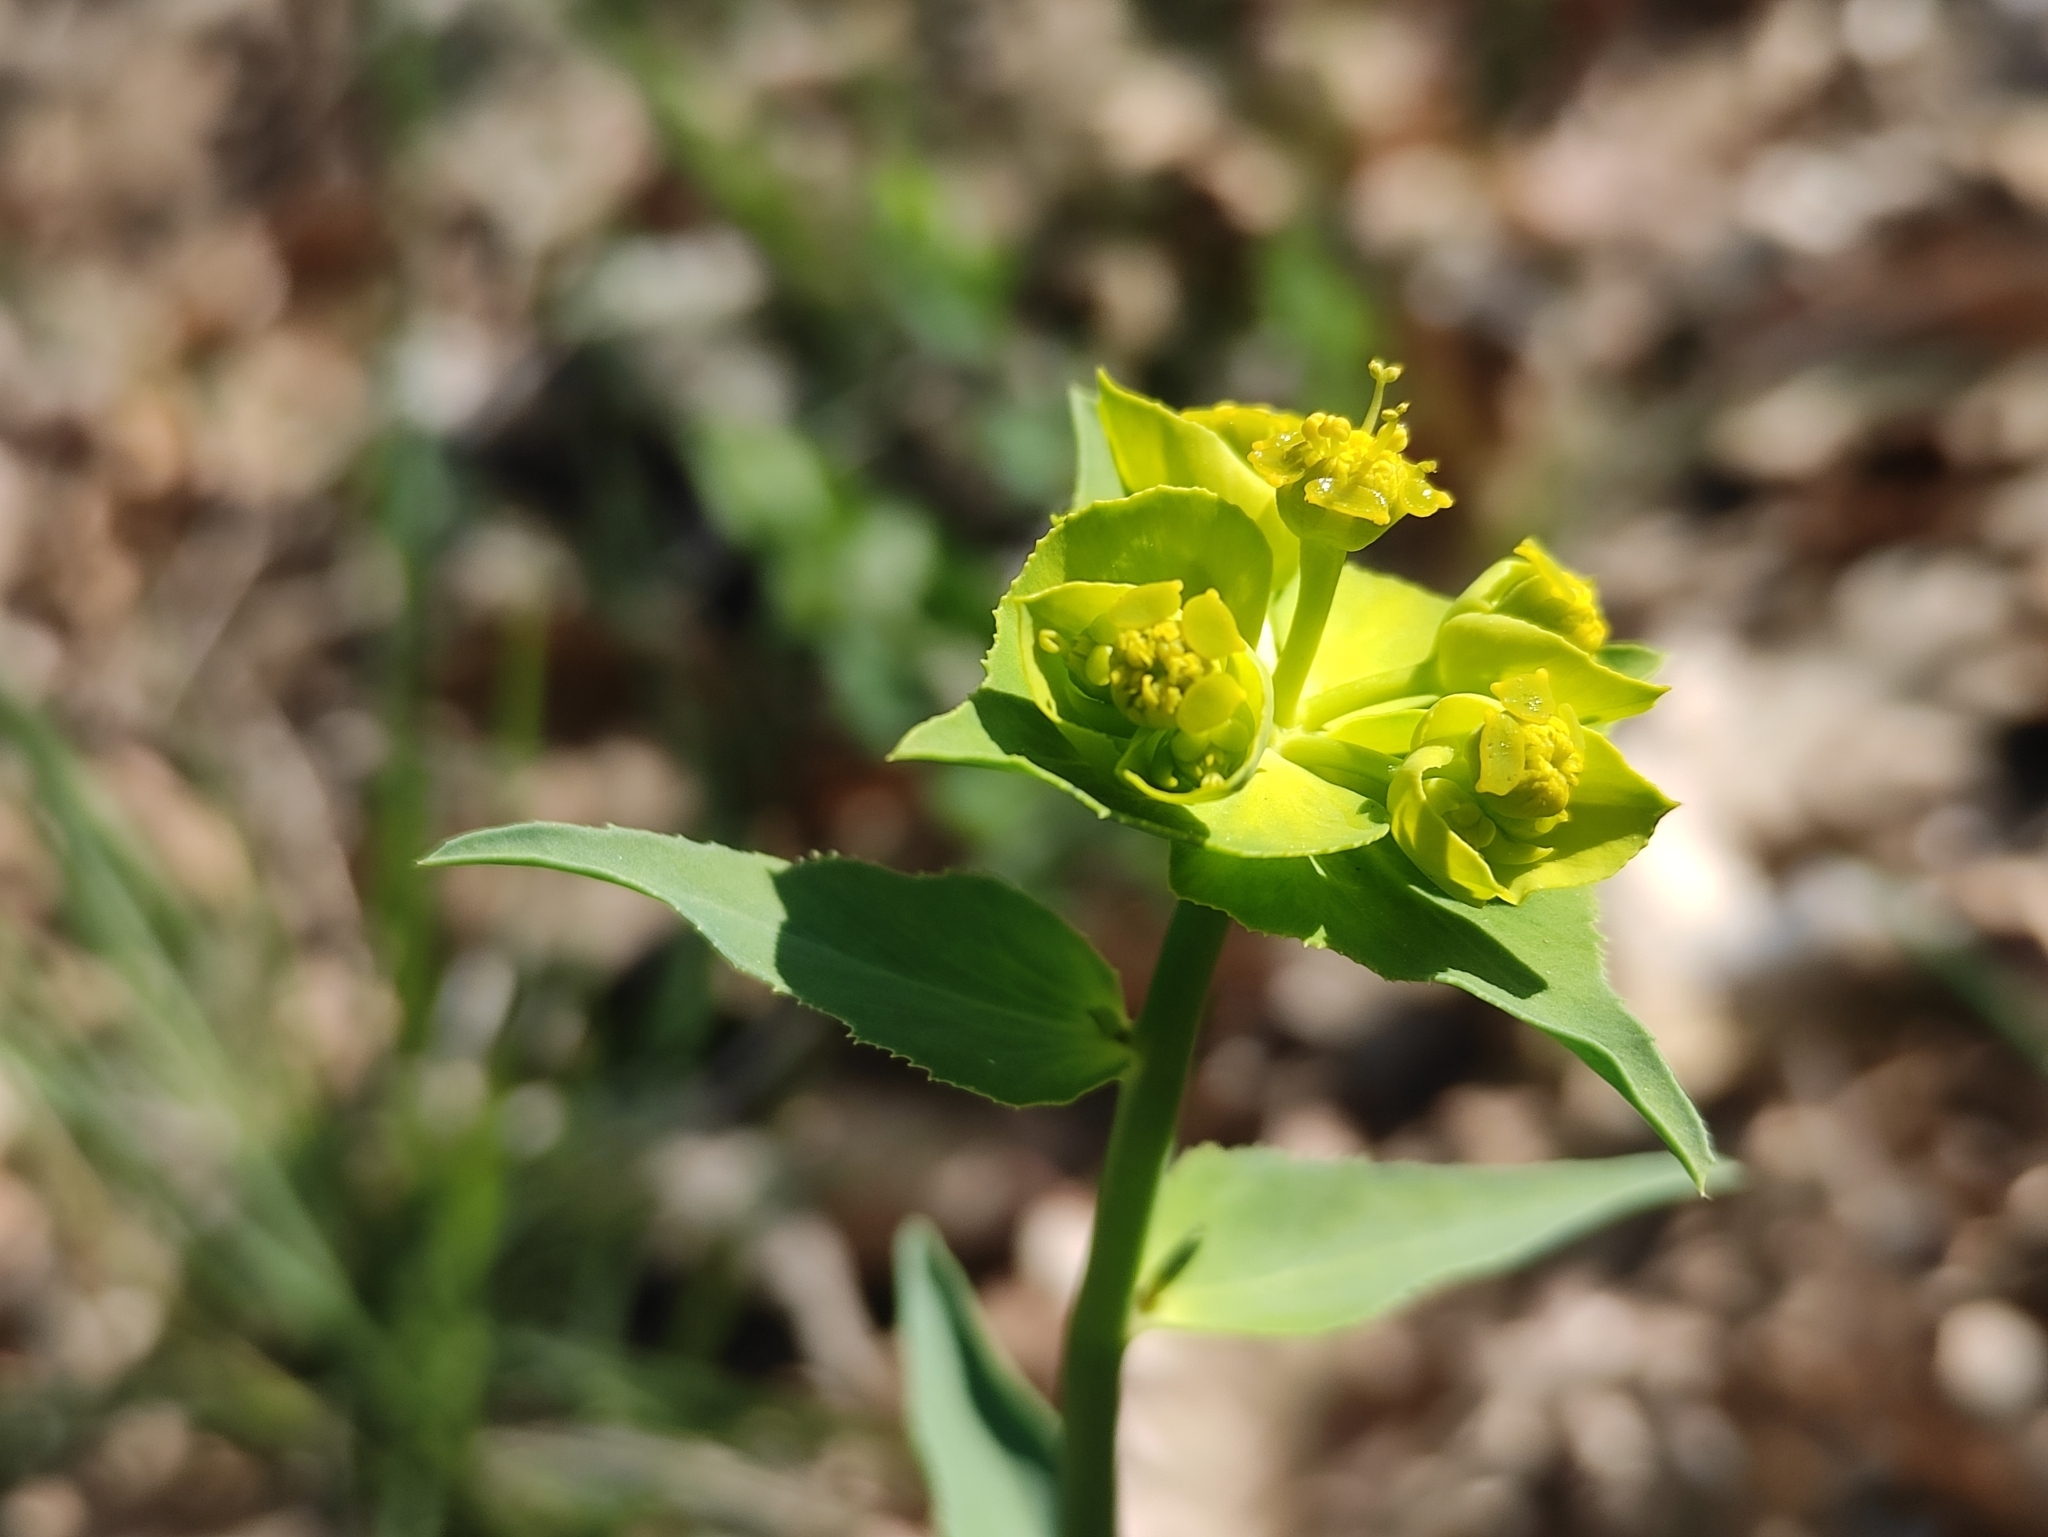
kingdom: Plantae
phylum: Tracheophyta
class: Magnoliopsida
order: Malpighiales
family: Euphorbiaceae
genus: Euphorbia
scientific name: Euphorbia serrata
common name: Serrate spurge
